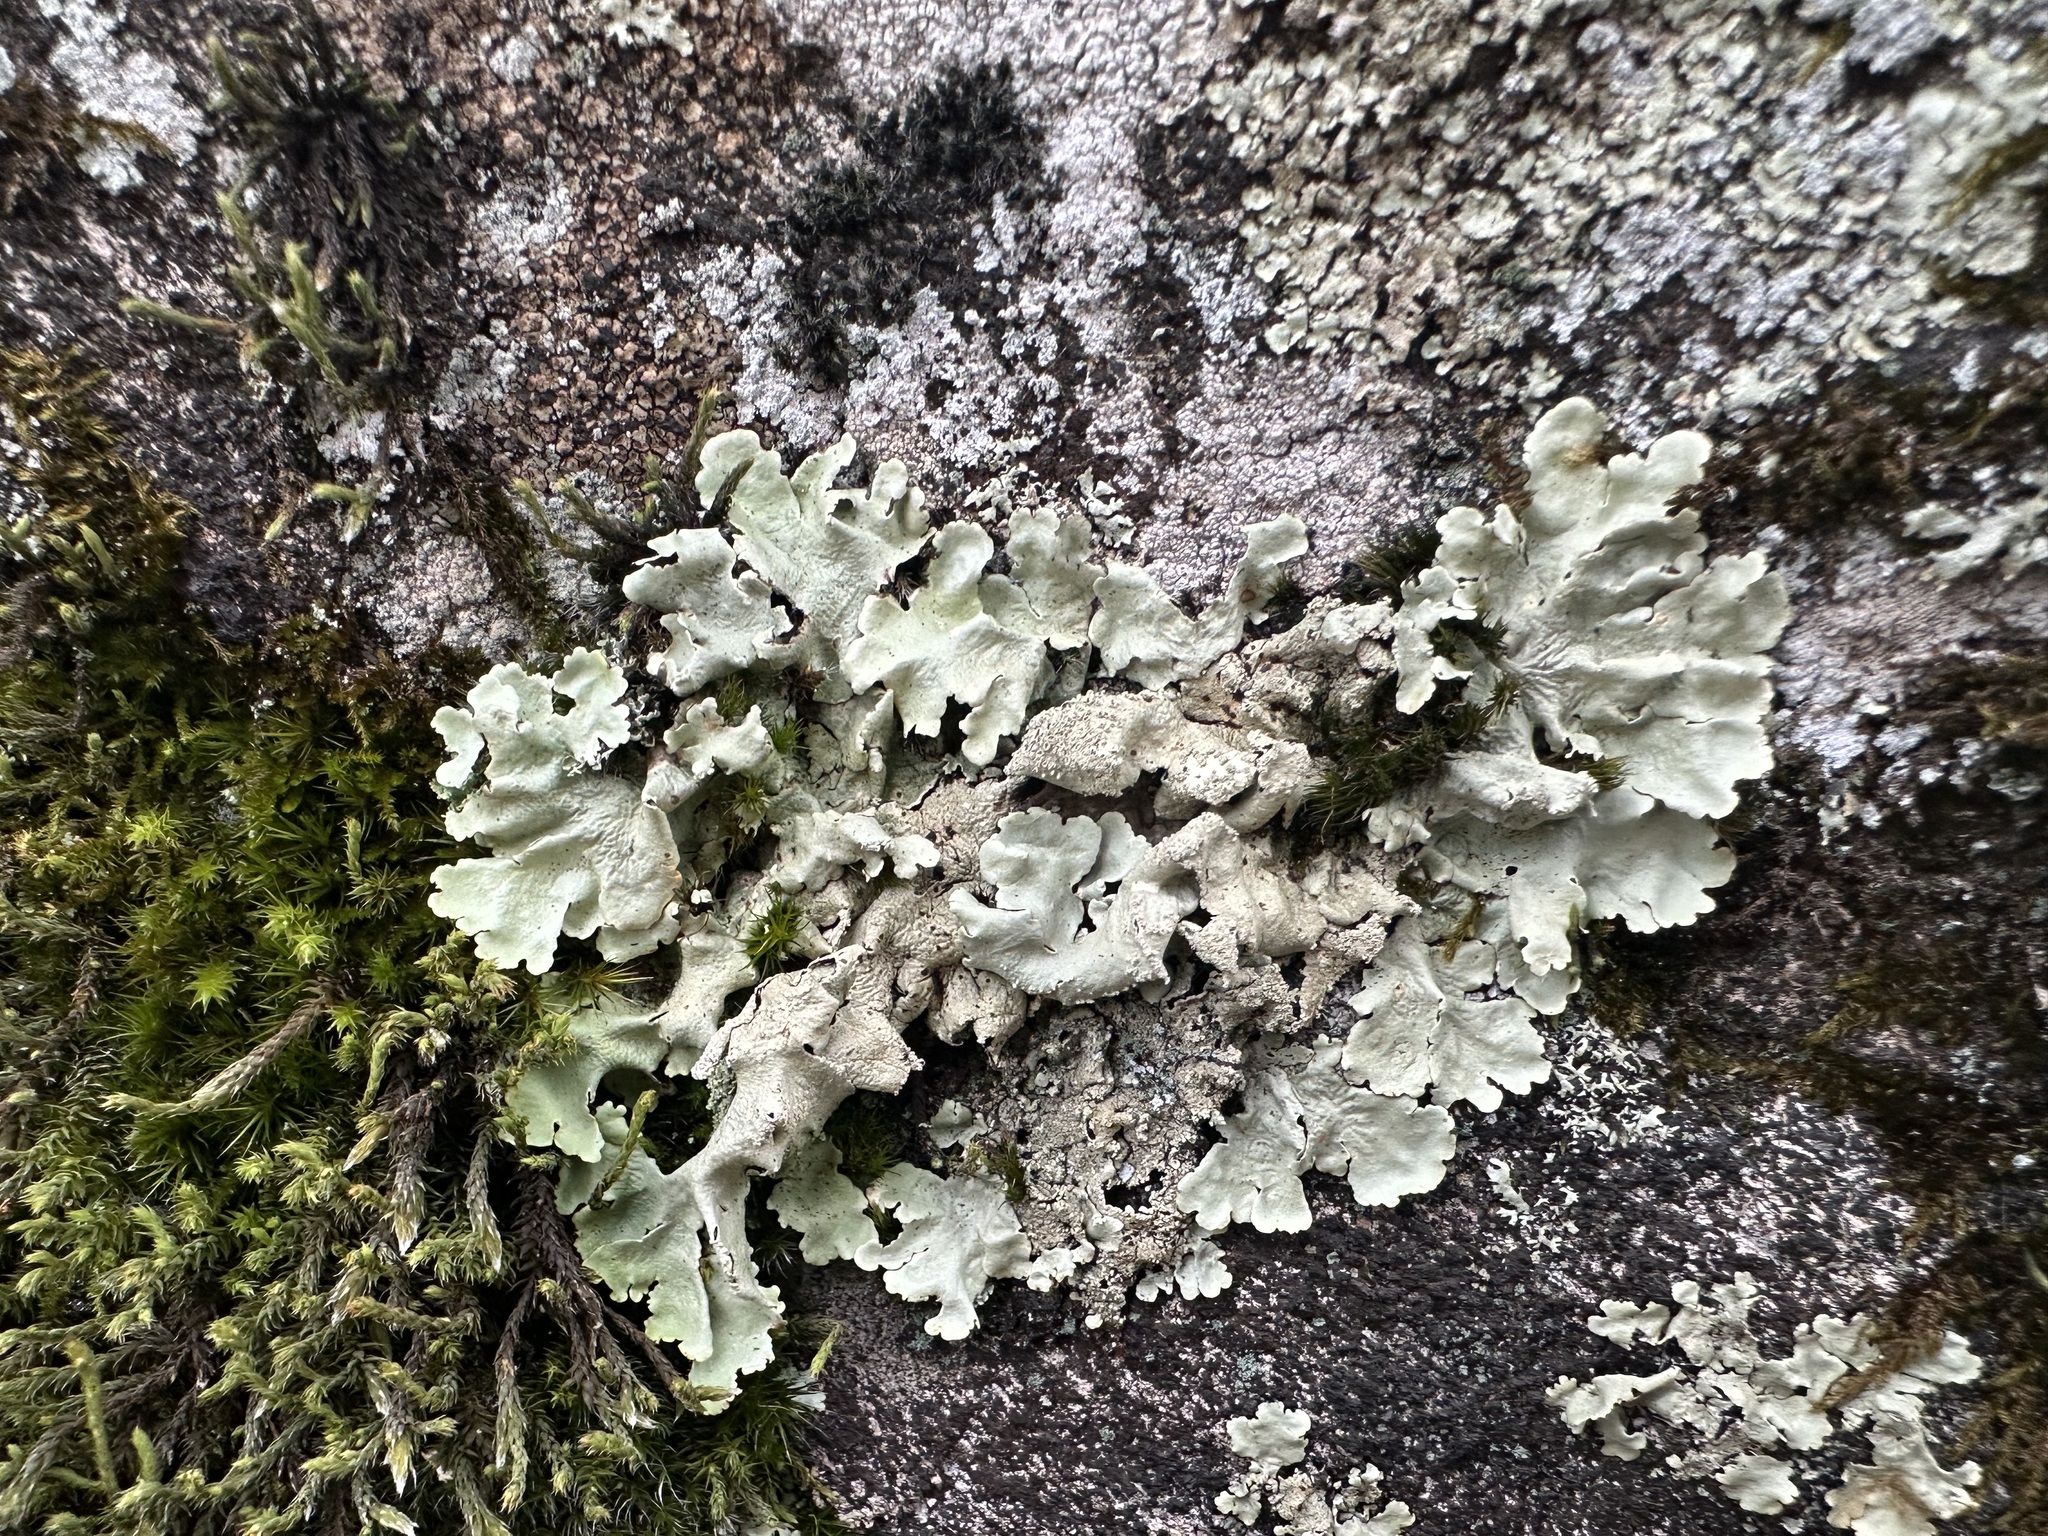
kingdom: Fungi
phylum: Ascomycota
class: Lecanoromycetes
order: Lecanorales
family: Parmeliaceae
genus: Flavoparmelia
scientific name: Flavoparmelia caperata
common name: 40-mile per hour lichen
